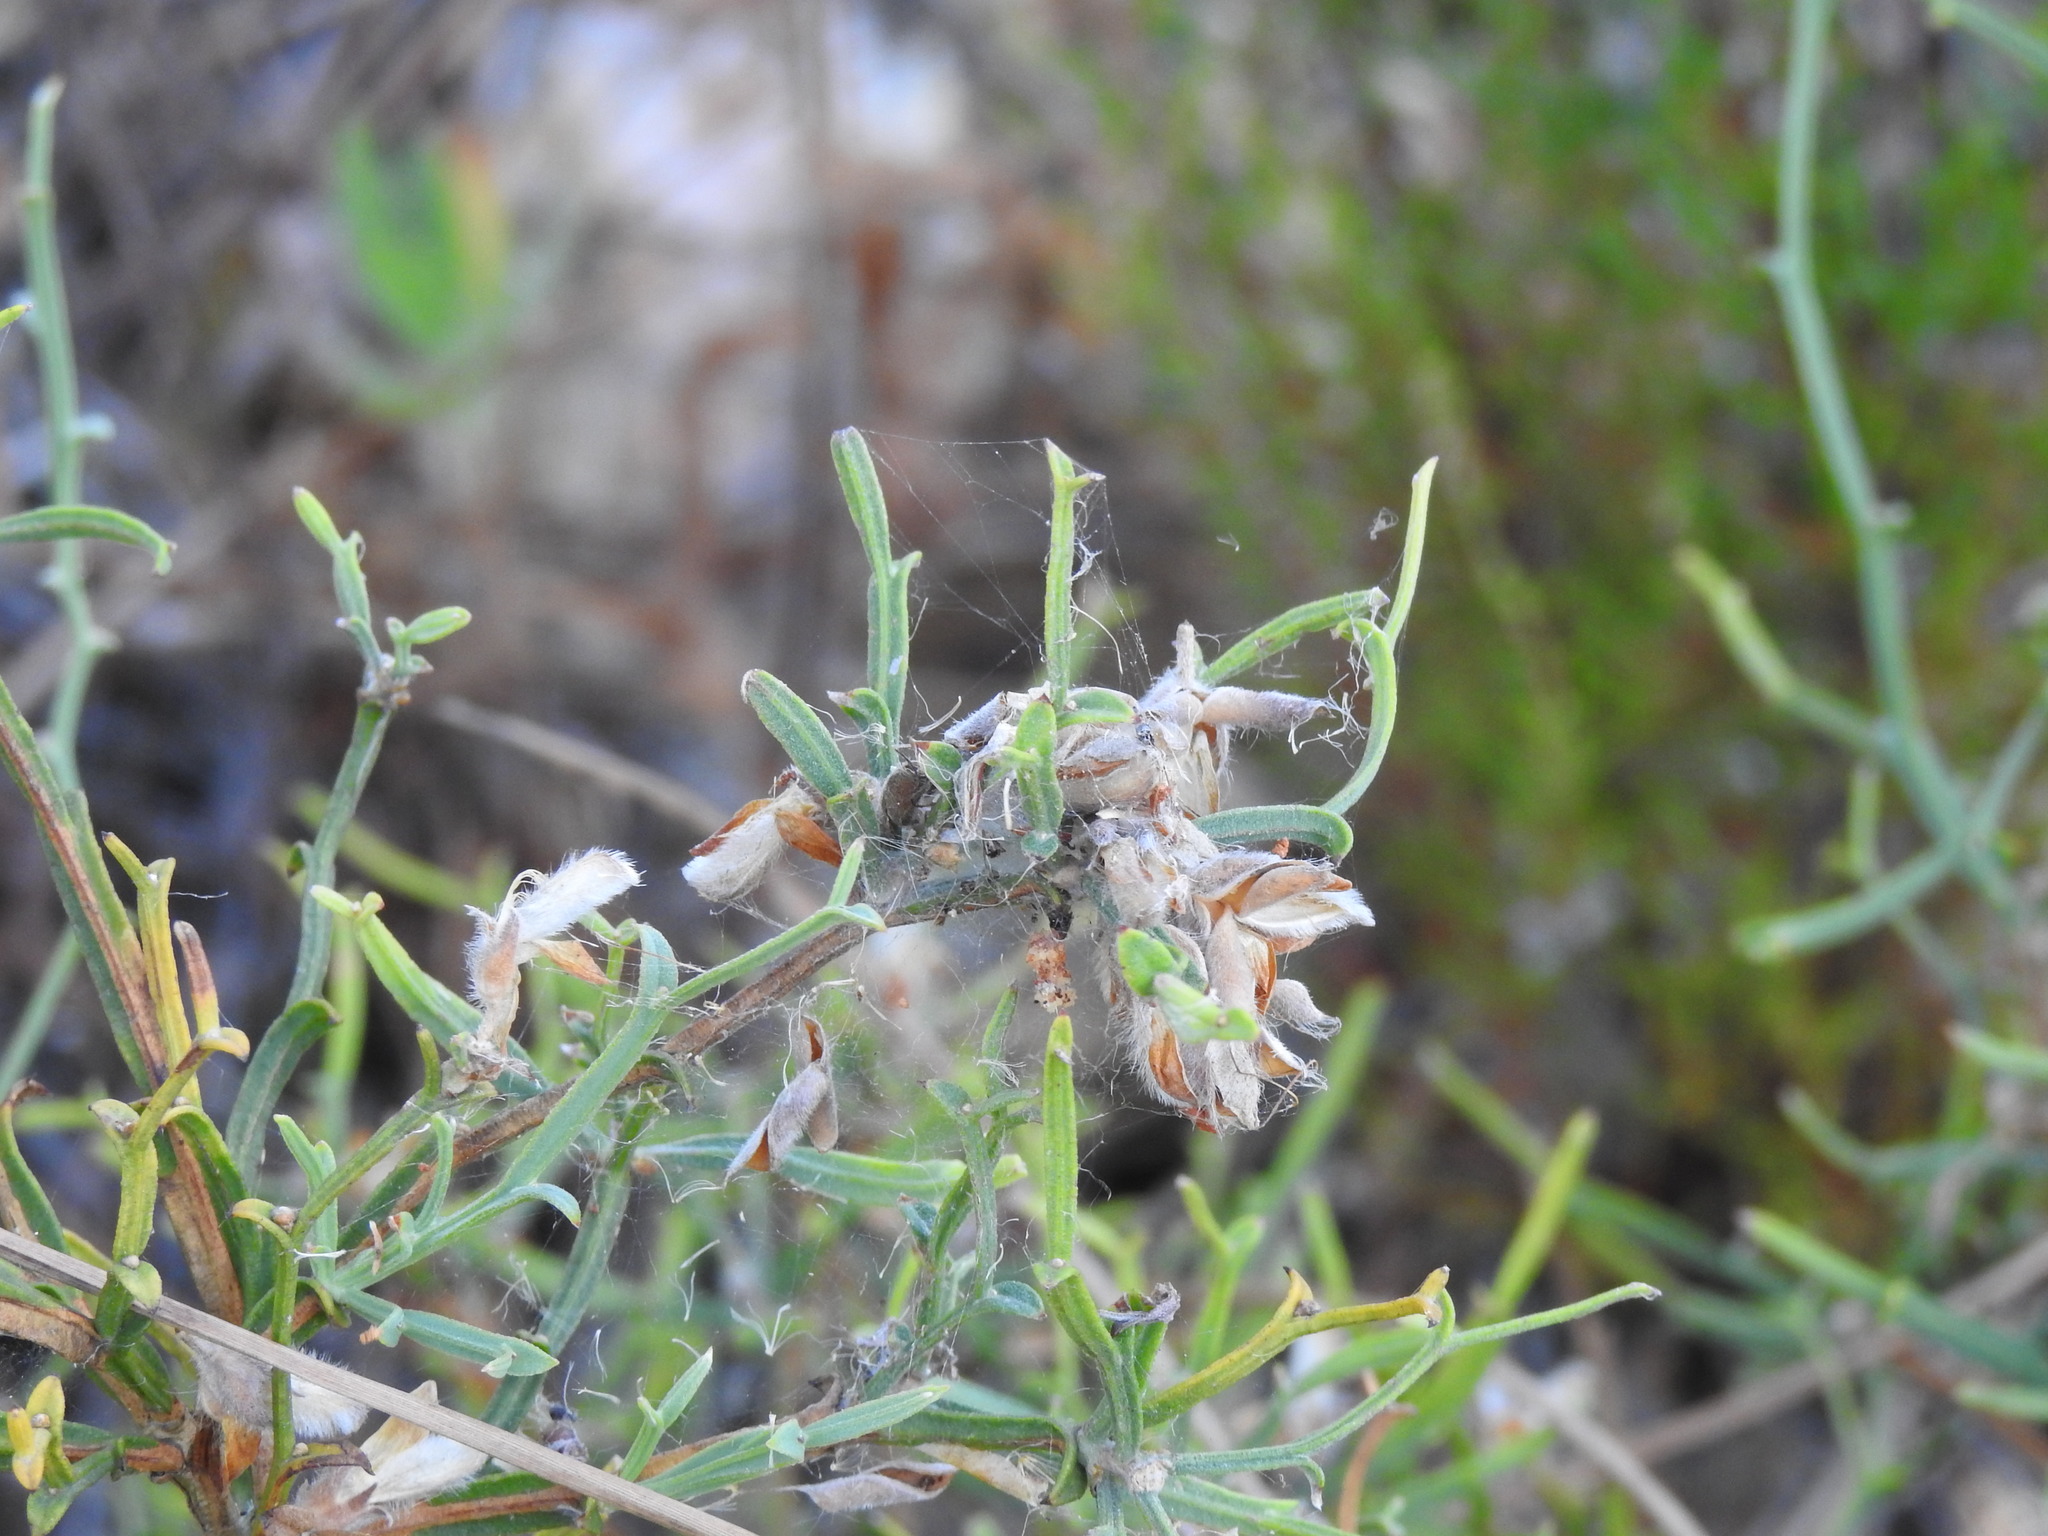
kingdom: Plantae
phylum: Tracheophyta
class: Magnoliopsida
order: Fabales
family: Fabaceae
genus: Genista
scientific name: Genista tridentata
